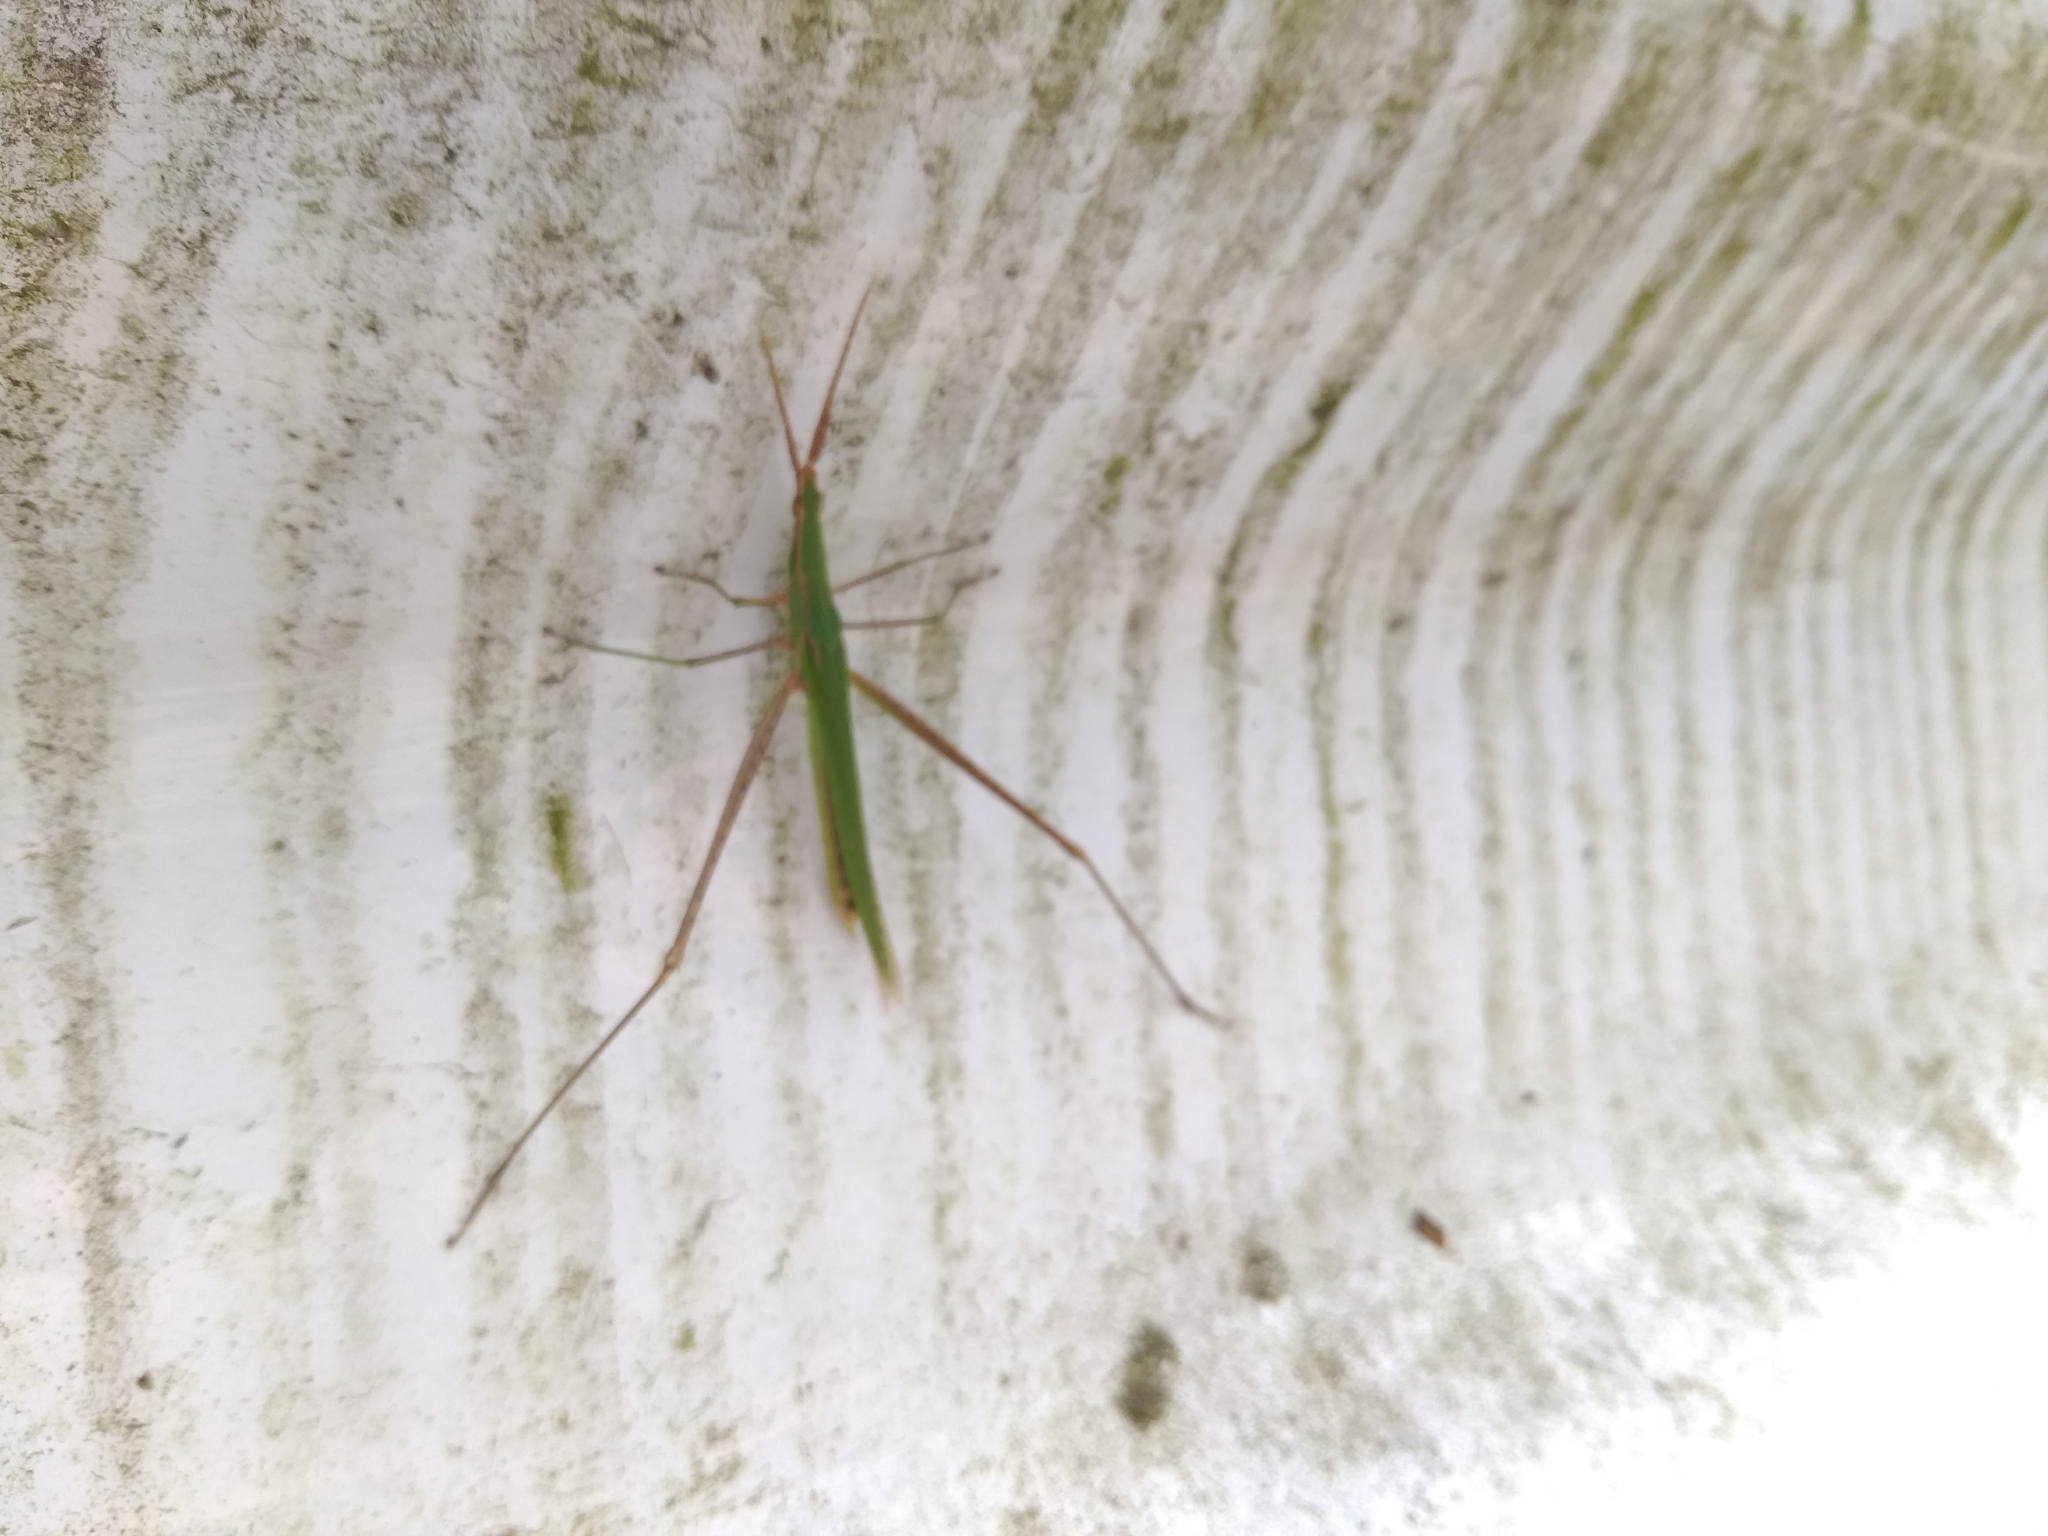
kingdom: Animalia
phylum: Arthropoda
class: Insecta
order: Orthoptera
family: Acrididae
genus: Acrida
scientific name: Acrida cinerea
